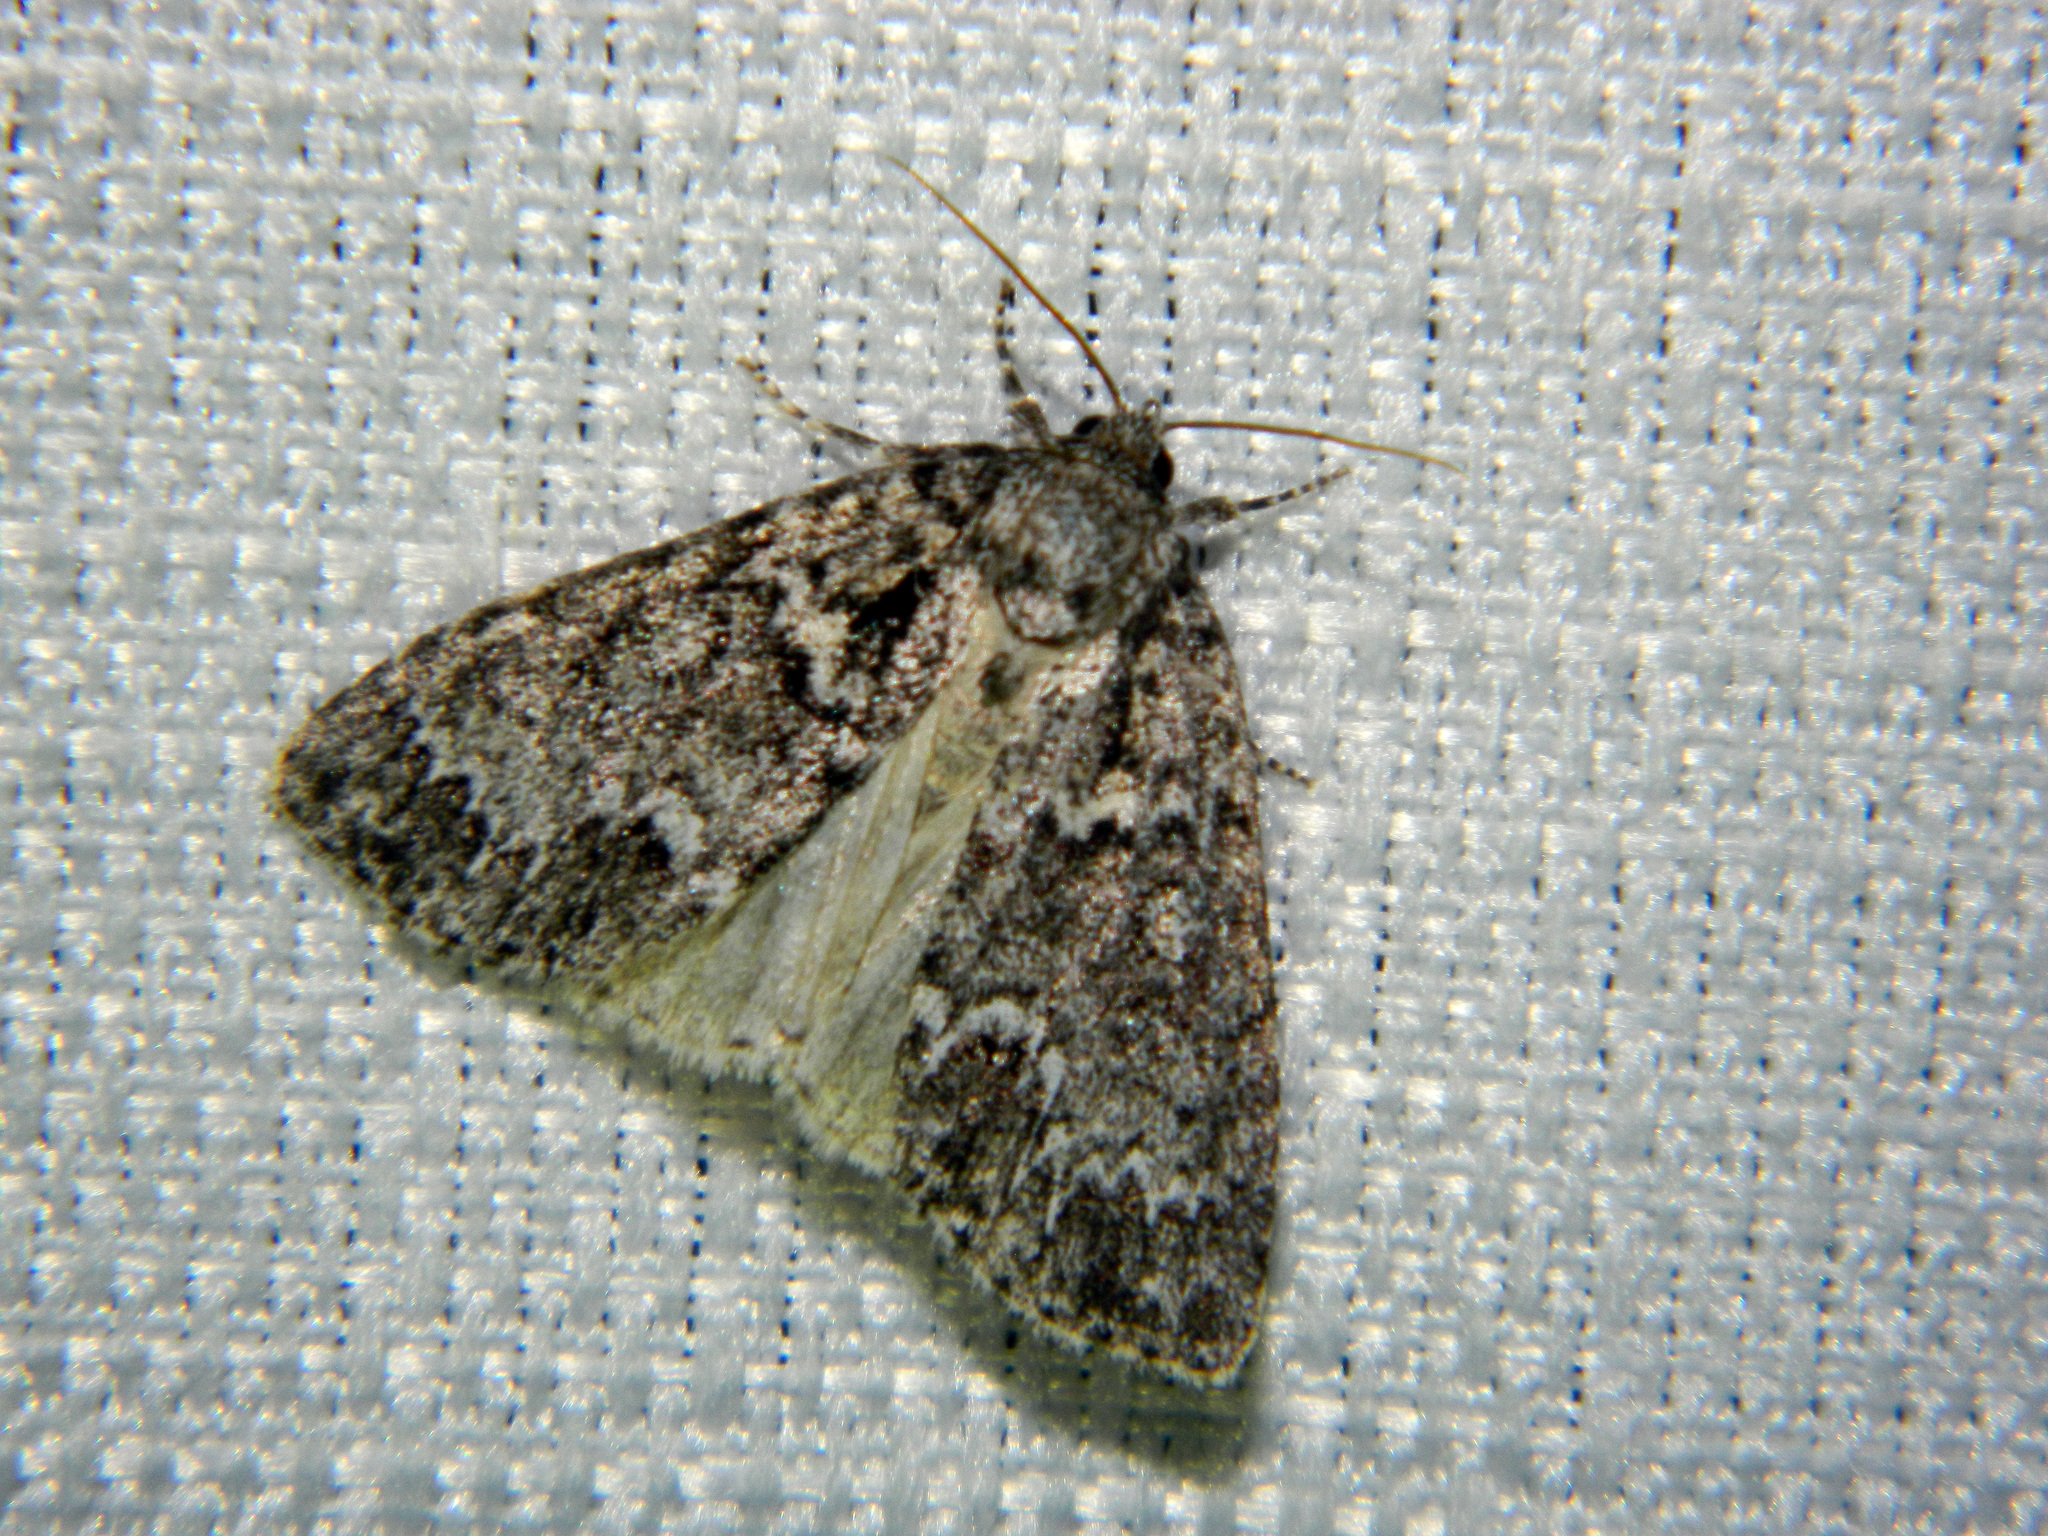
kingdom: Animalia
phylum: Arthropoda
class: Insecta
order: Lepidoptera
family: Noctuidae
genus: Acronicta
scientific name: Acronicta fragilis
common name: Fragile dagger
